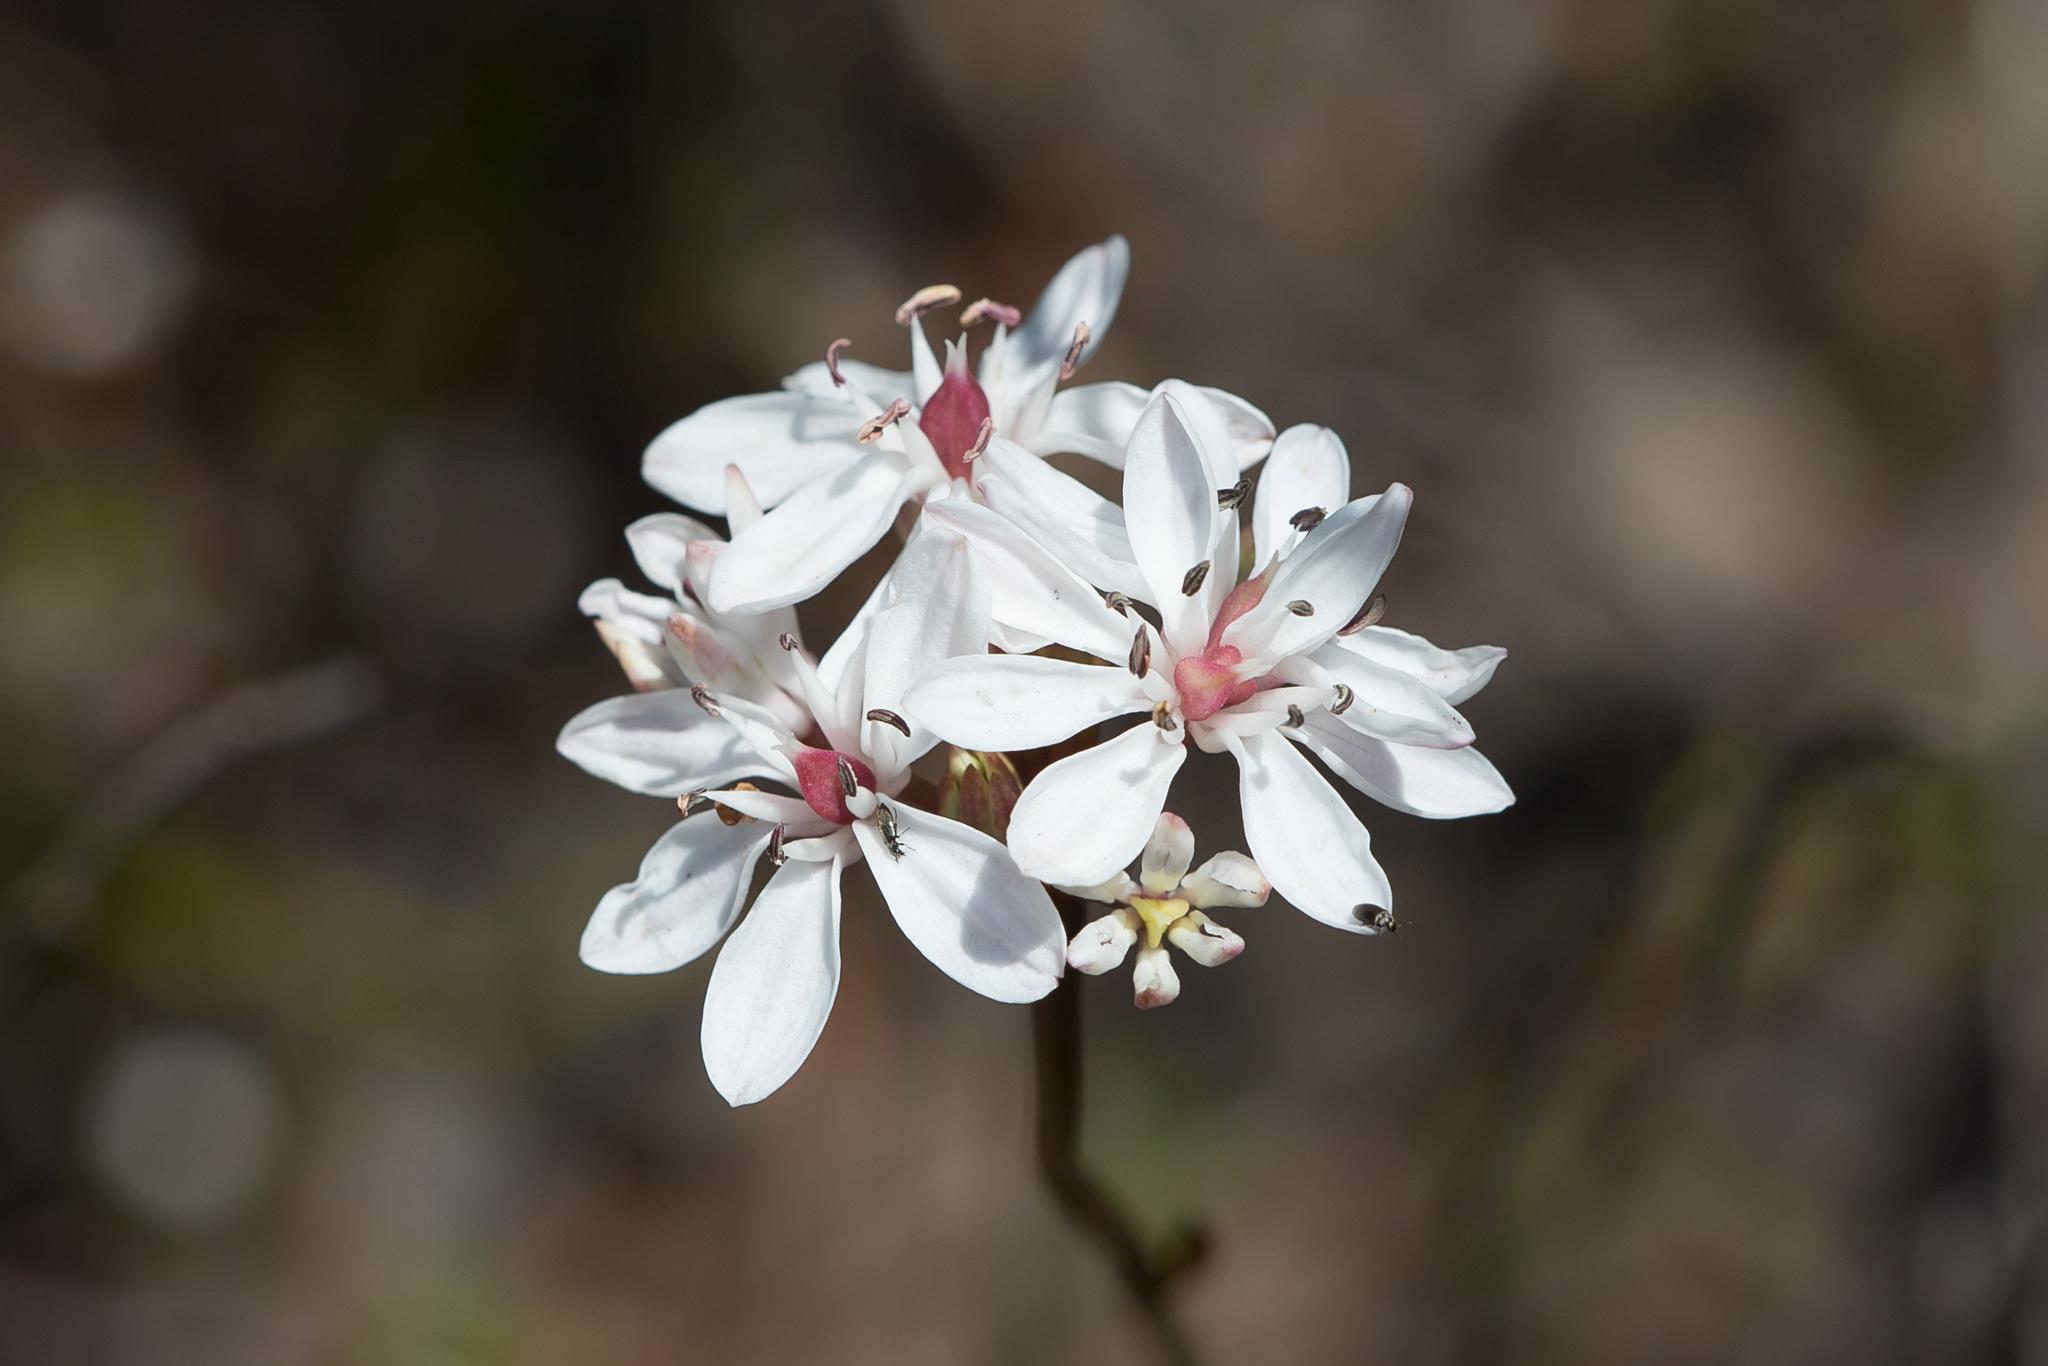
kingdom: Plantae
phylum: Tracheophyta
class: Liliopsida
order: Liliales
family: Colchicaceae
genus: Burchardia
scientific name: Burchardia umbellata
